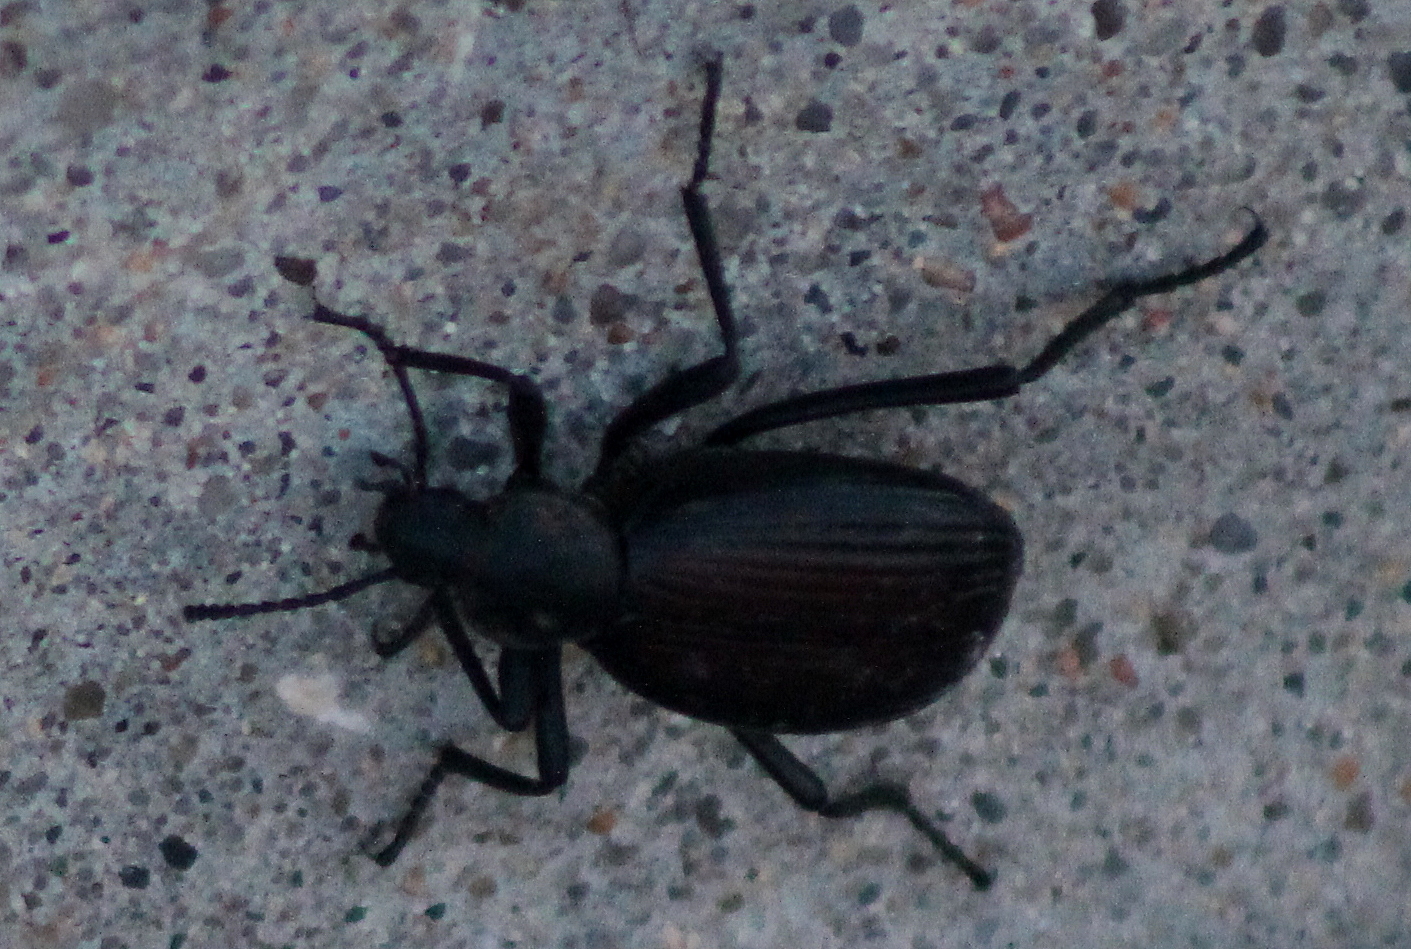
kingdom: Animalia
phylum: Arthropoda
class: Insecta
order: Coleoptera
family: Tenebrionidae
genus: Eleodes
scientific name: Eleodes hispilabris
